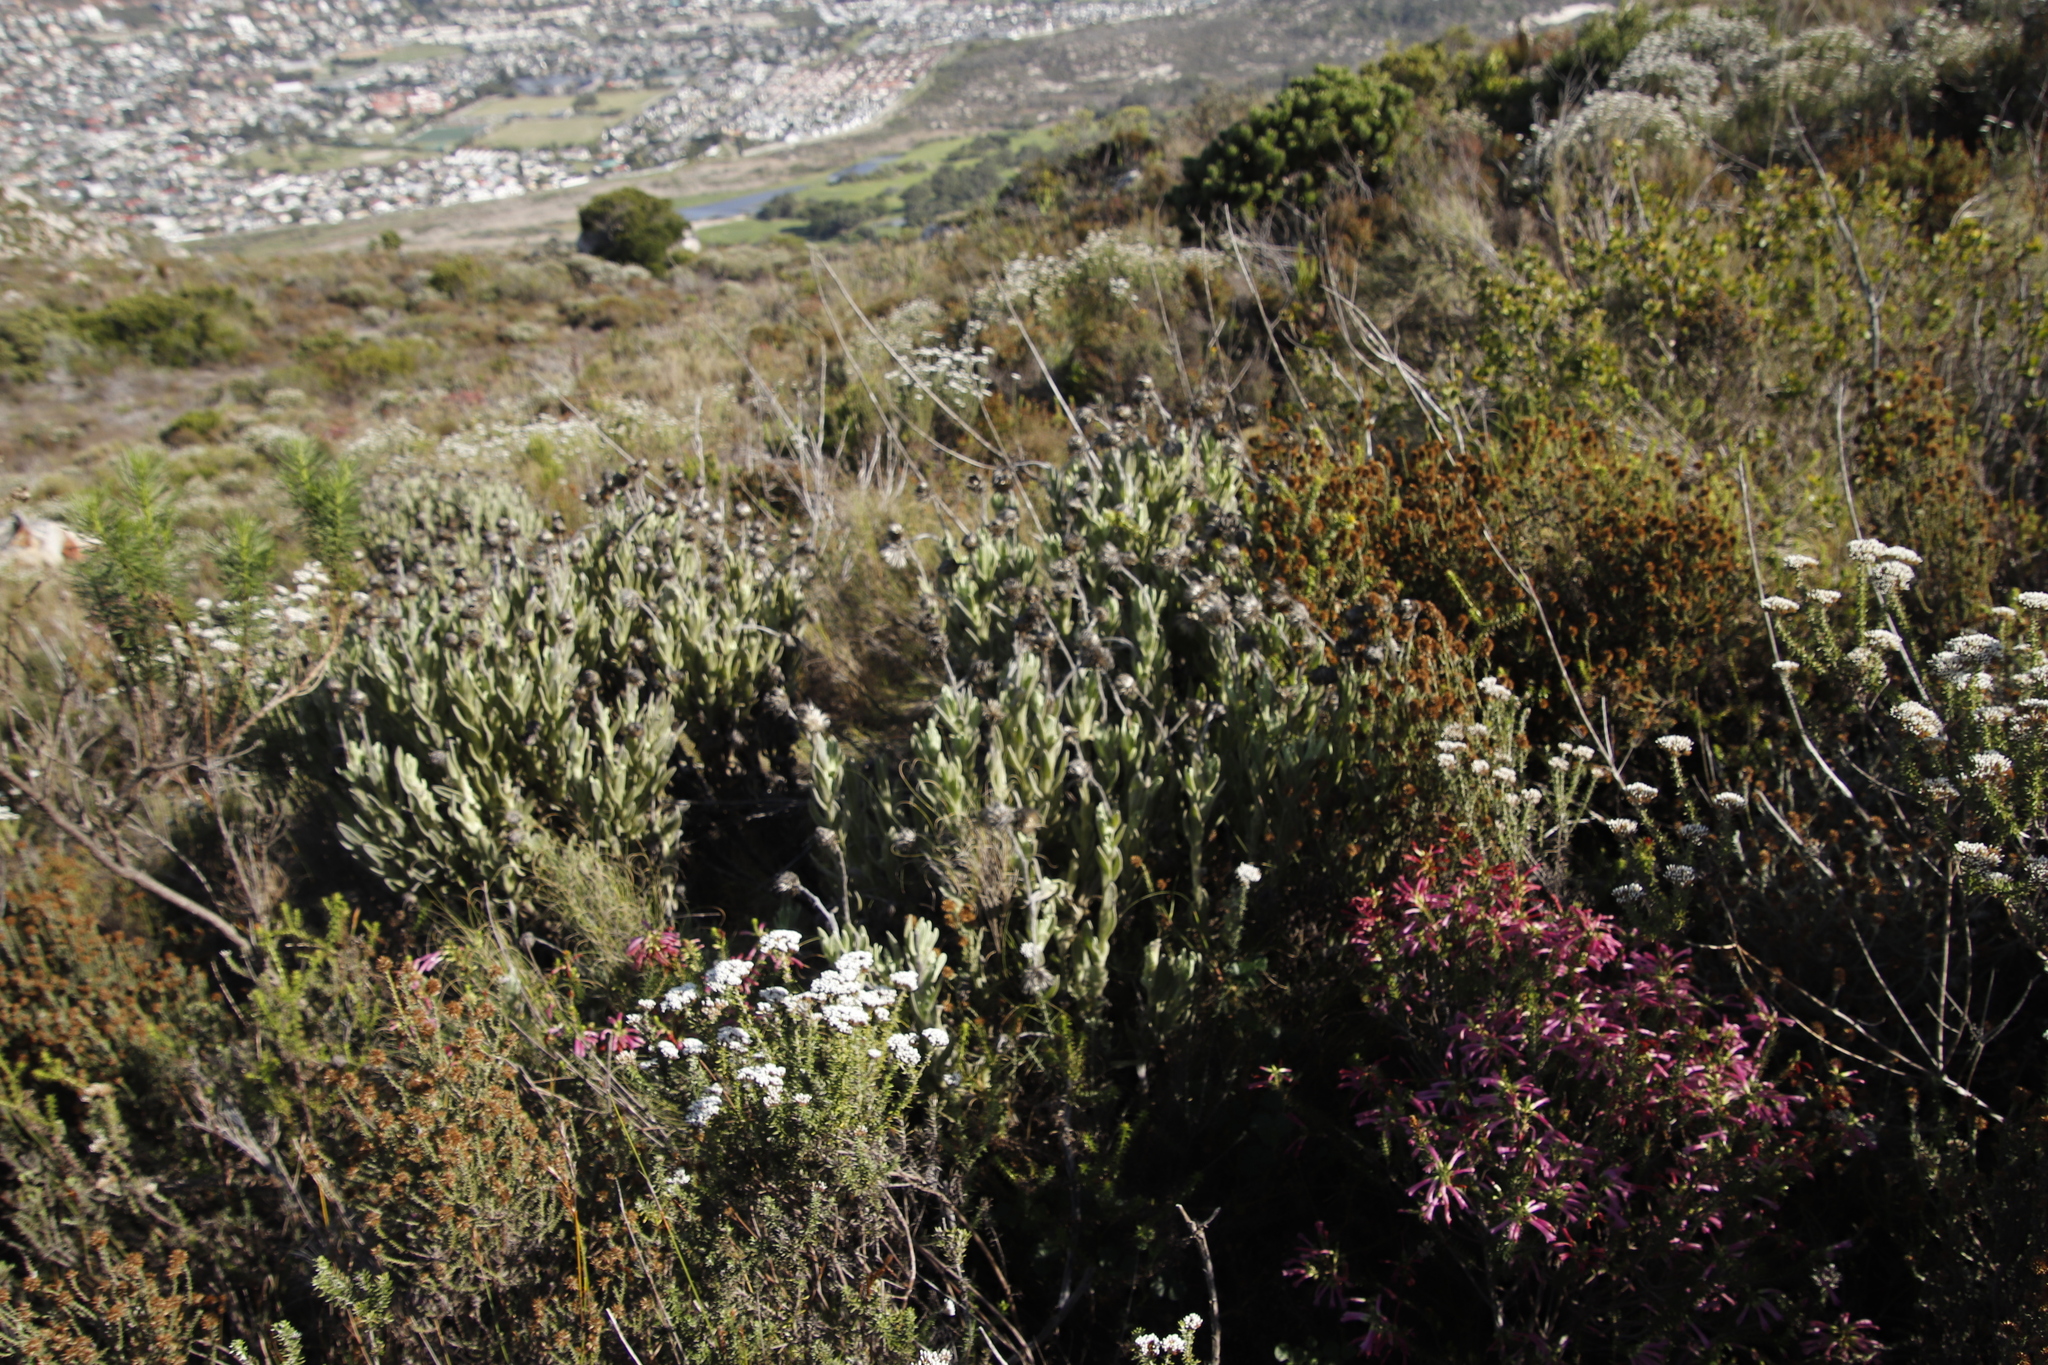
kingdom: Plantae
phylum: Tracheophyta
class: Magnoliopsida
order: Asterales
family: Asteraceae
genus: Syncarpha
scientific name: Syncarpha vestita
